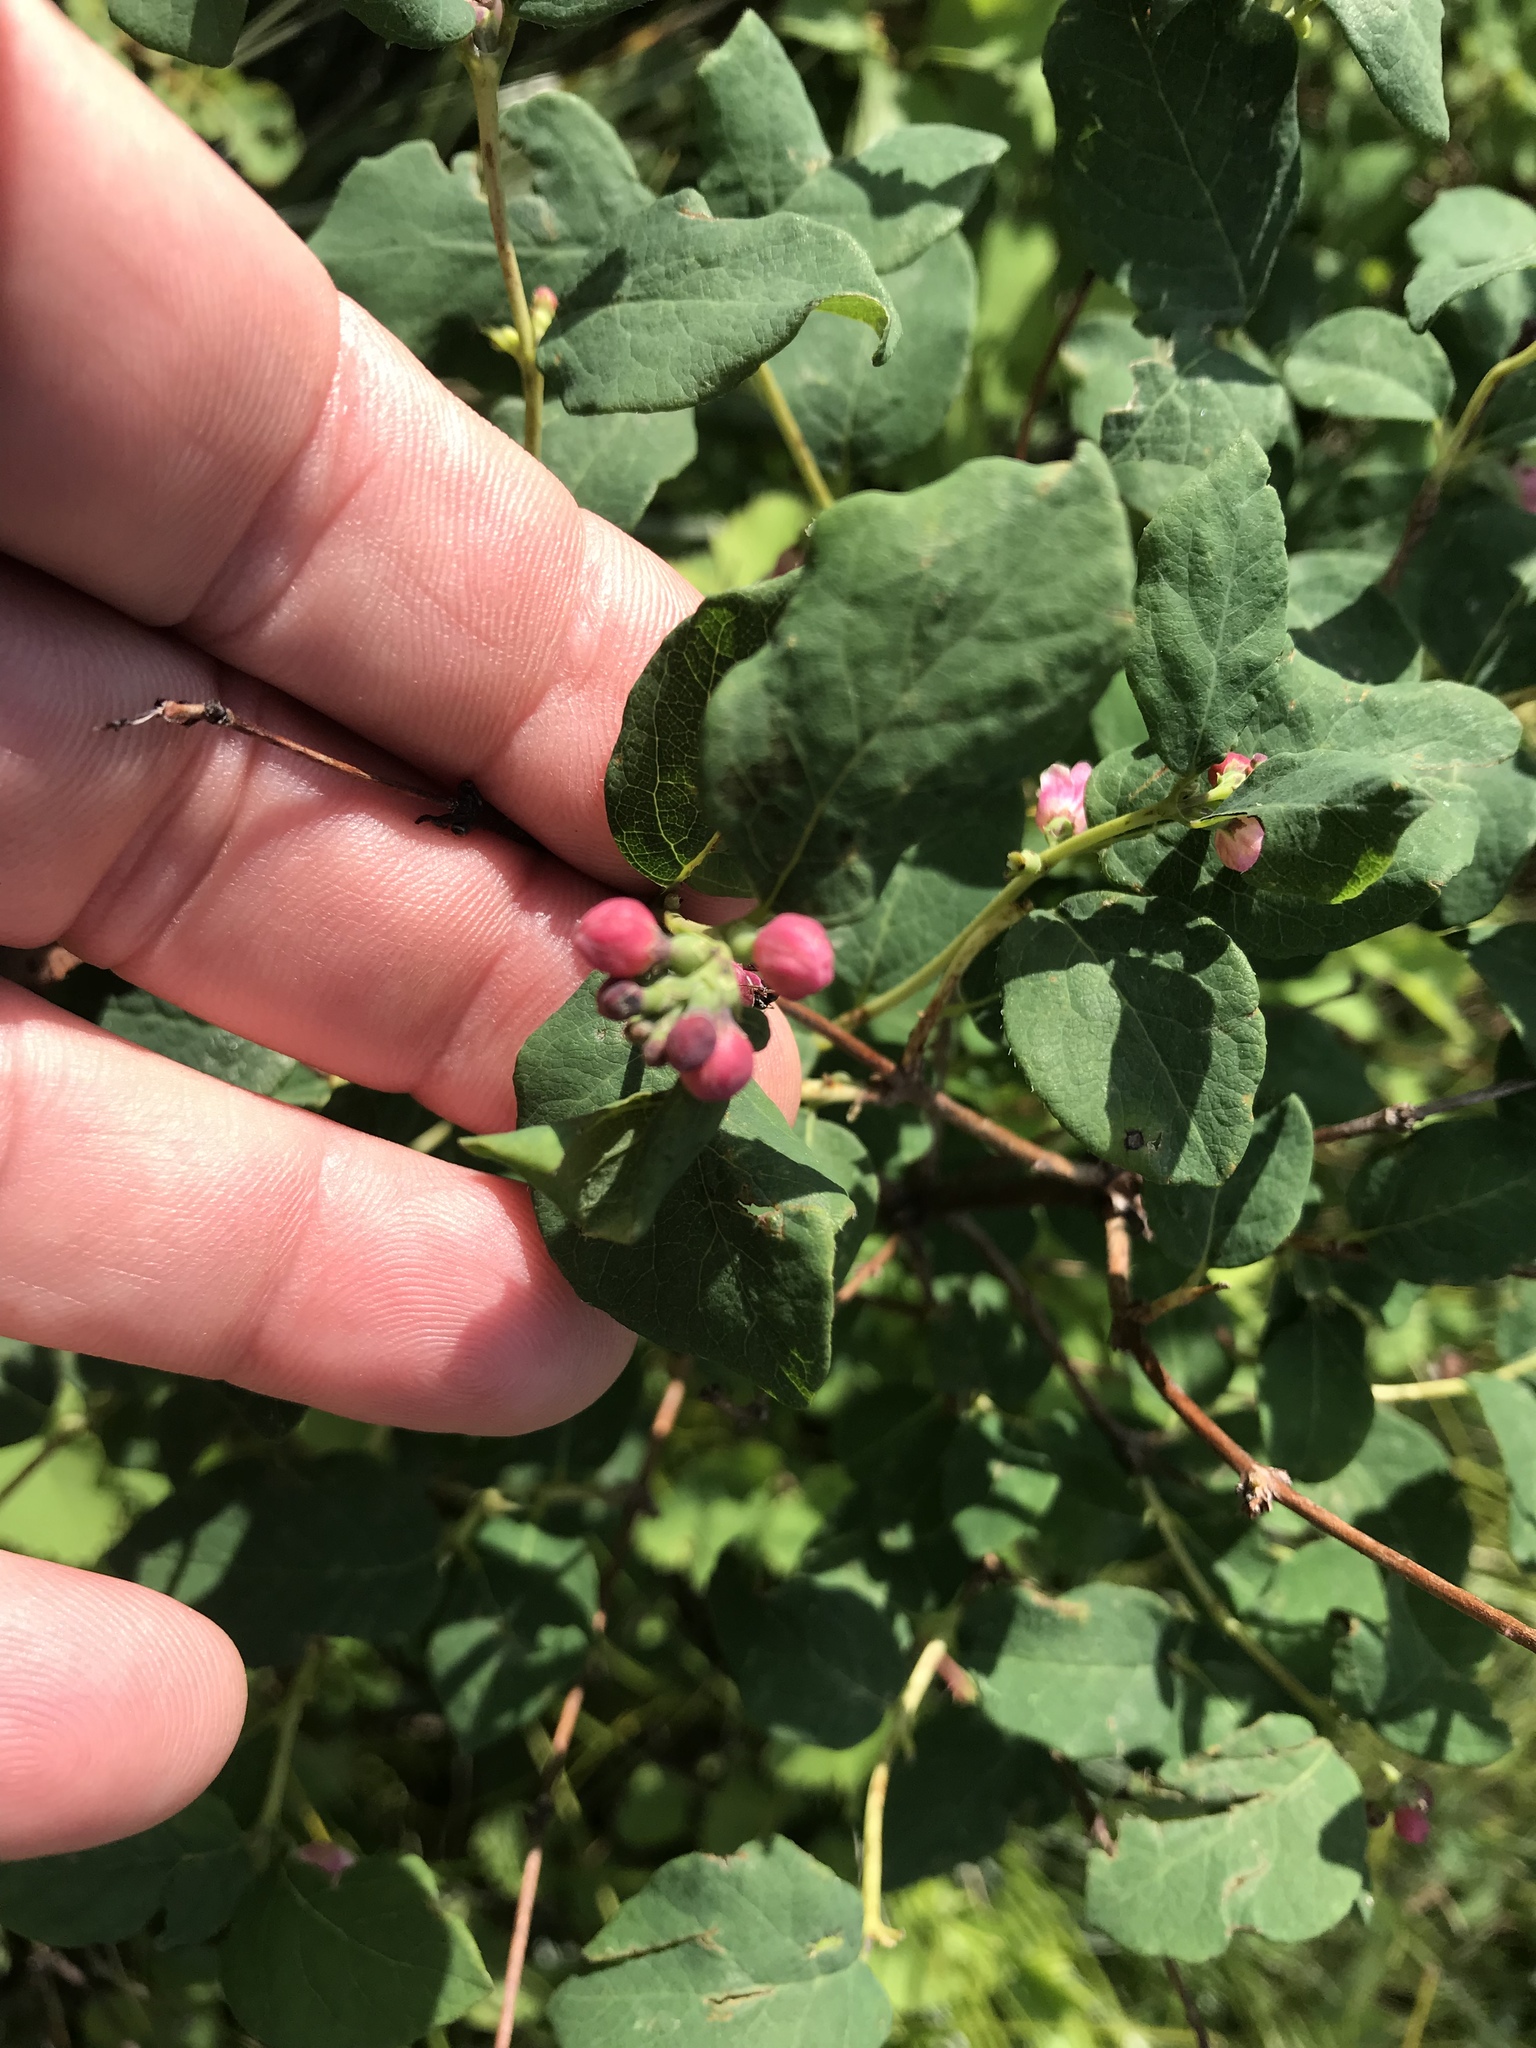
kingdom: Plantae
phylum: Tracheophyta
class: Magnoliopsida
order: Dipsacales
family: Caprifoliaceae
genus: Symphoricarpos
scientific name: Symphoricarpos albus
